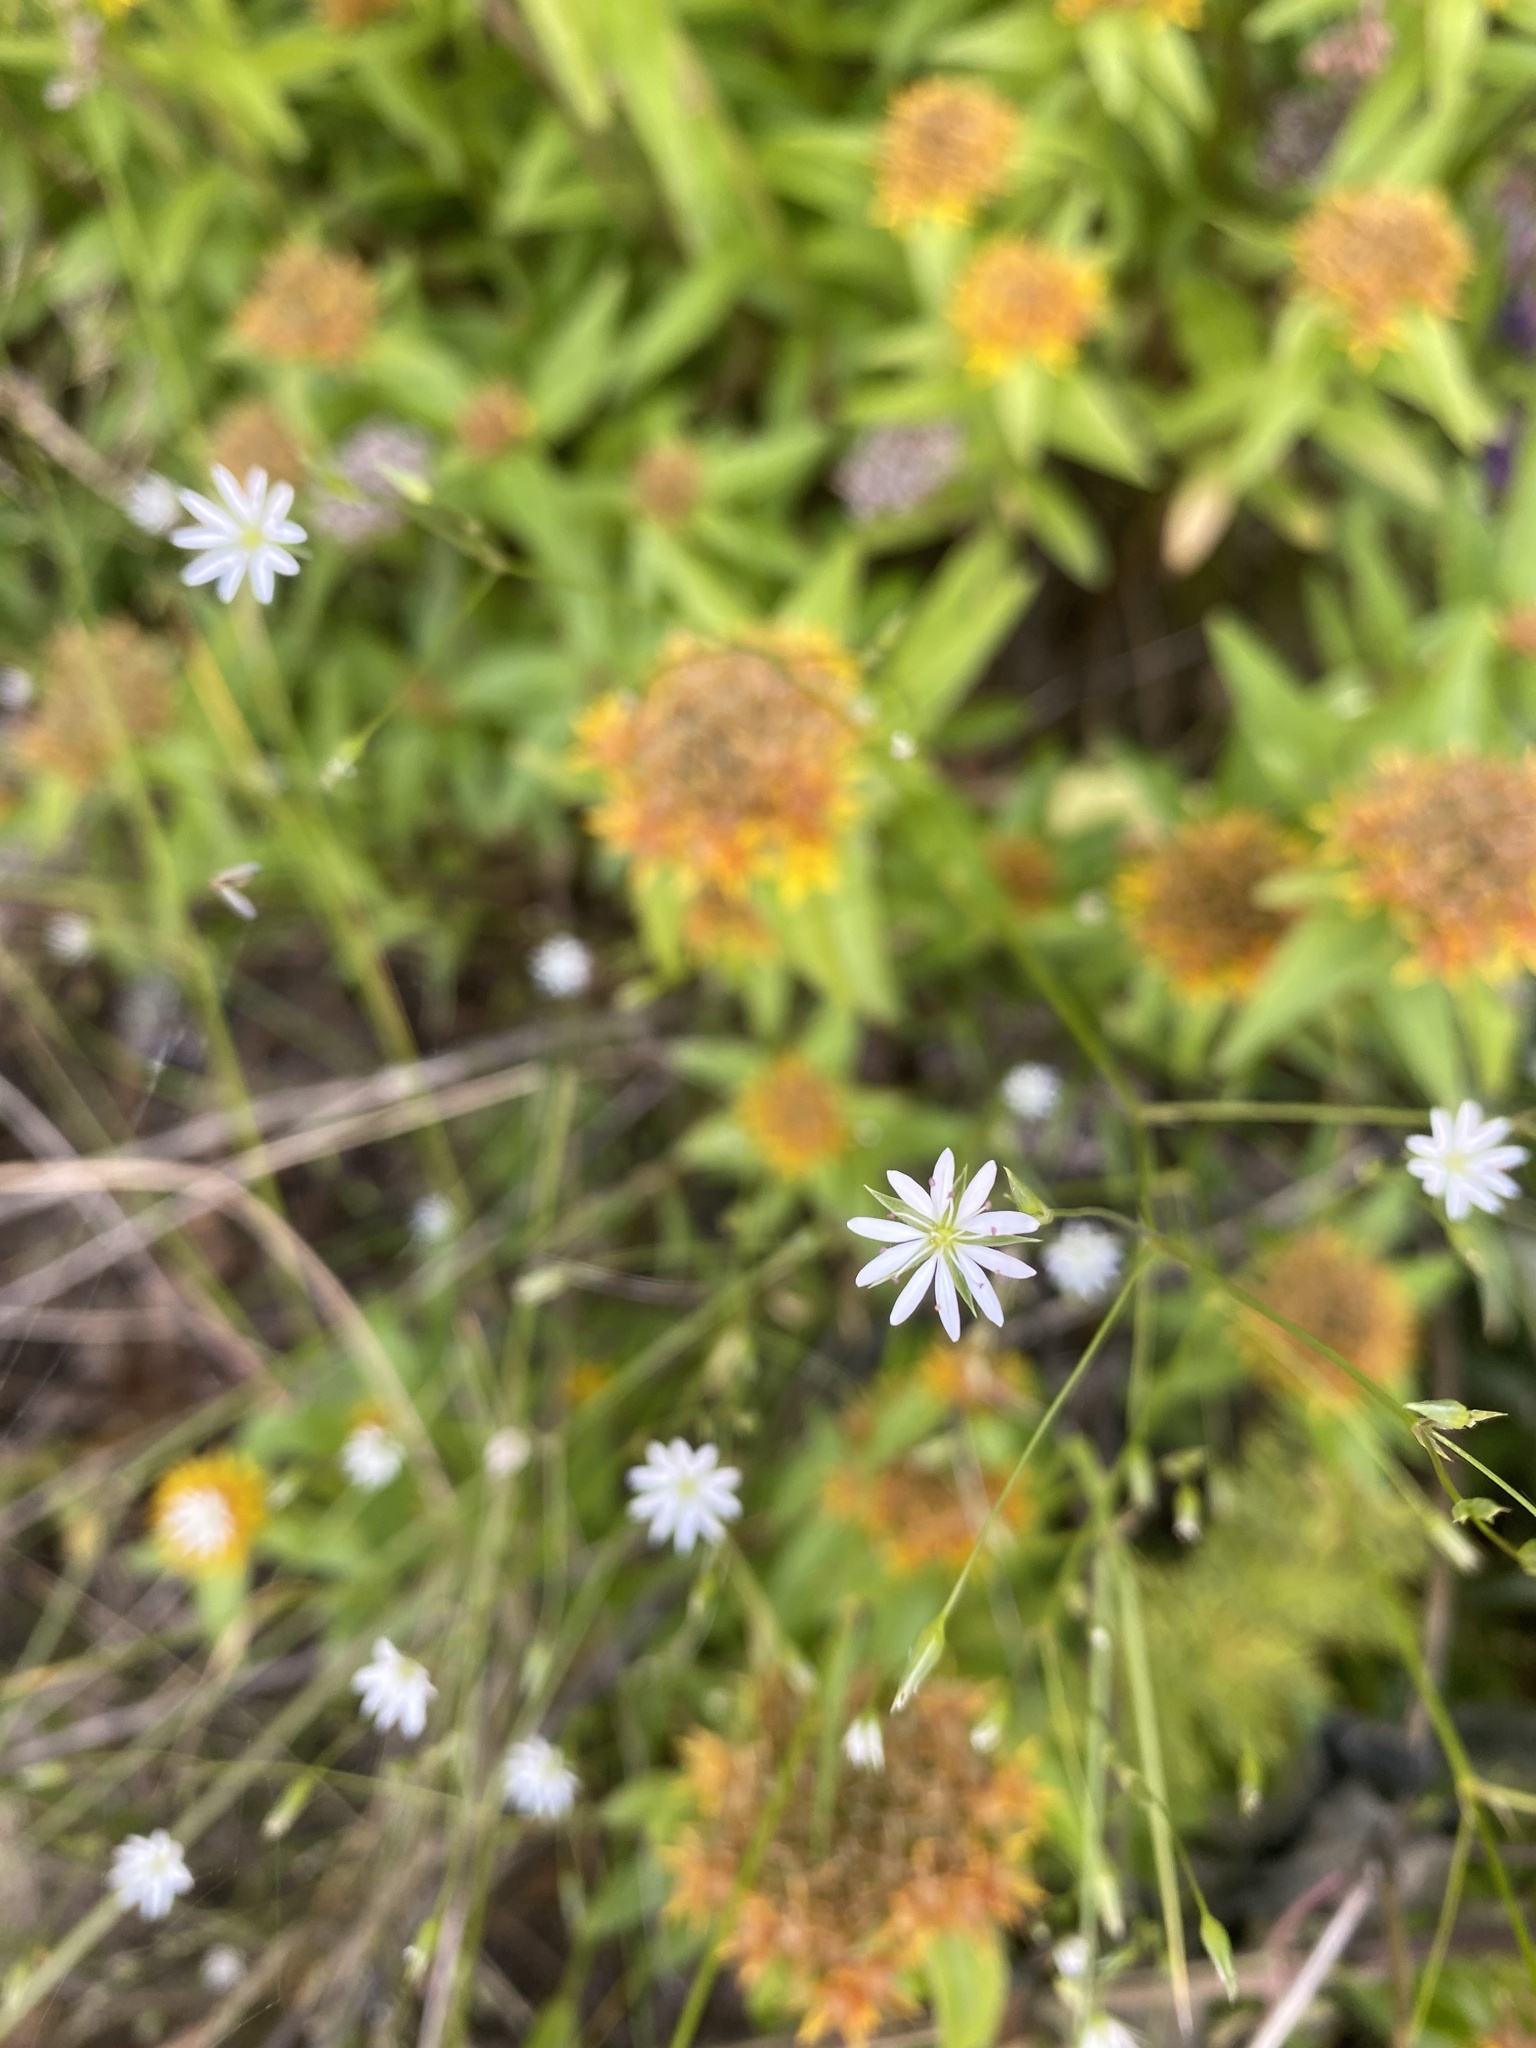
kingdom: Plantae
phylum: Tracheophyta
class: Magnoliopsida
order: Caryophyllales
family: Caryophyllaceae
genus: Stellaria
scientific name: Stellaria graminea
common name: Grass-like starwort
